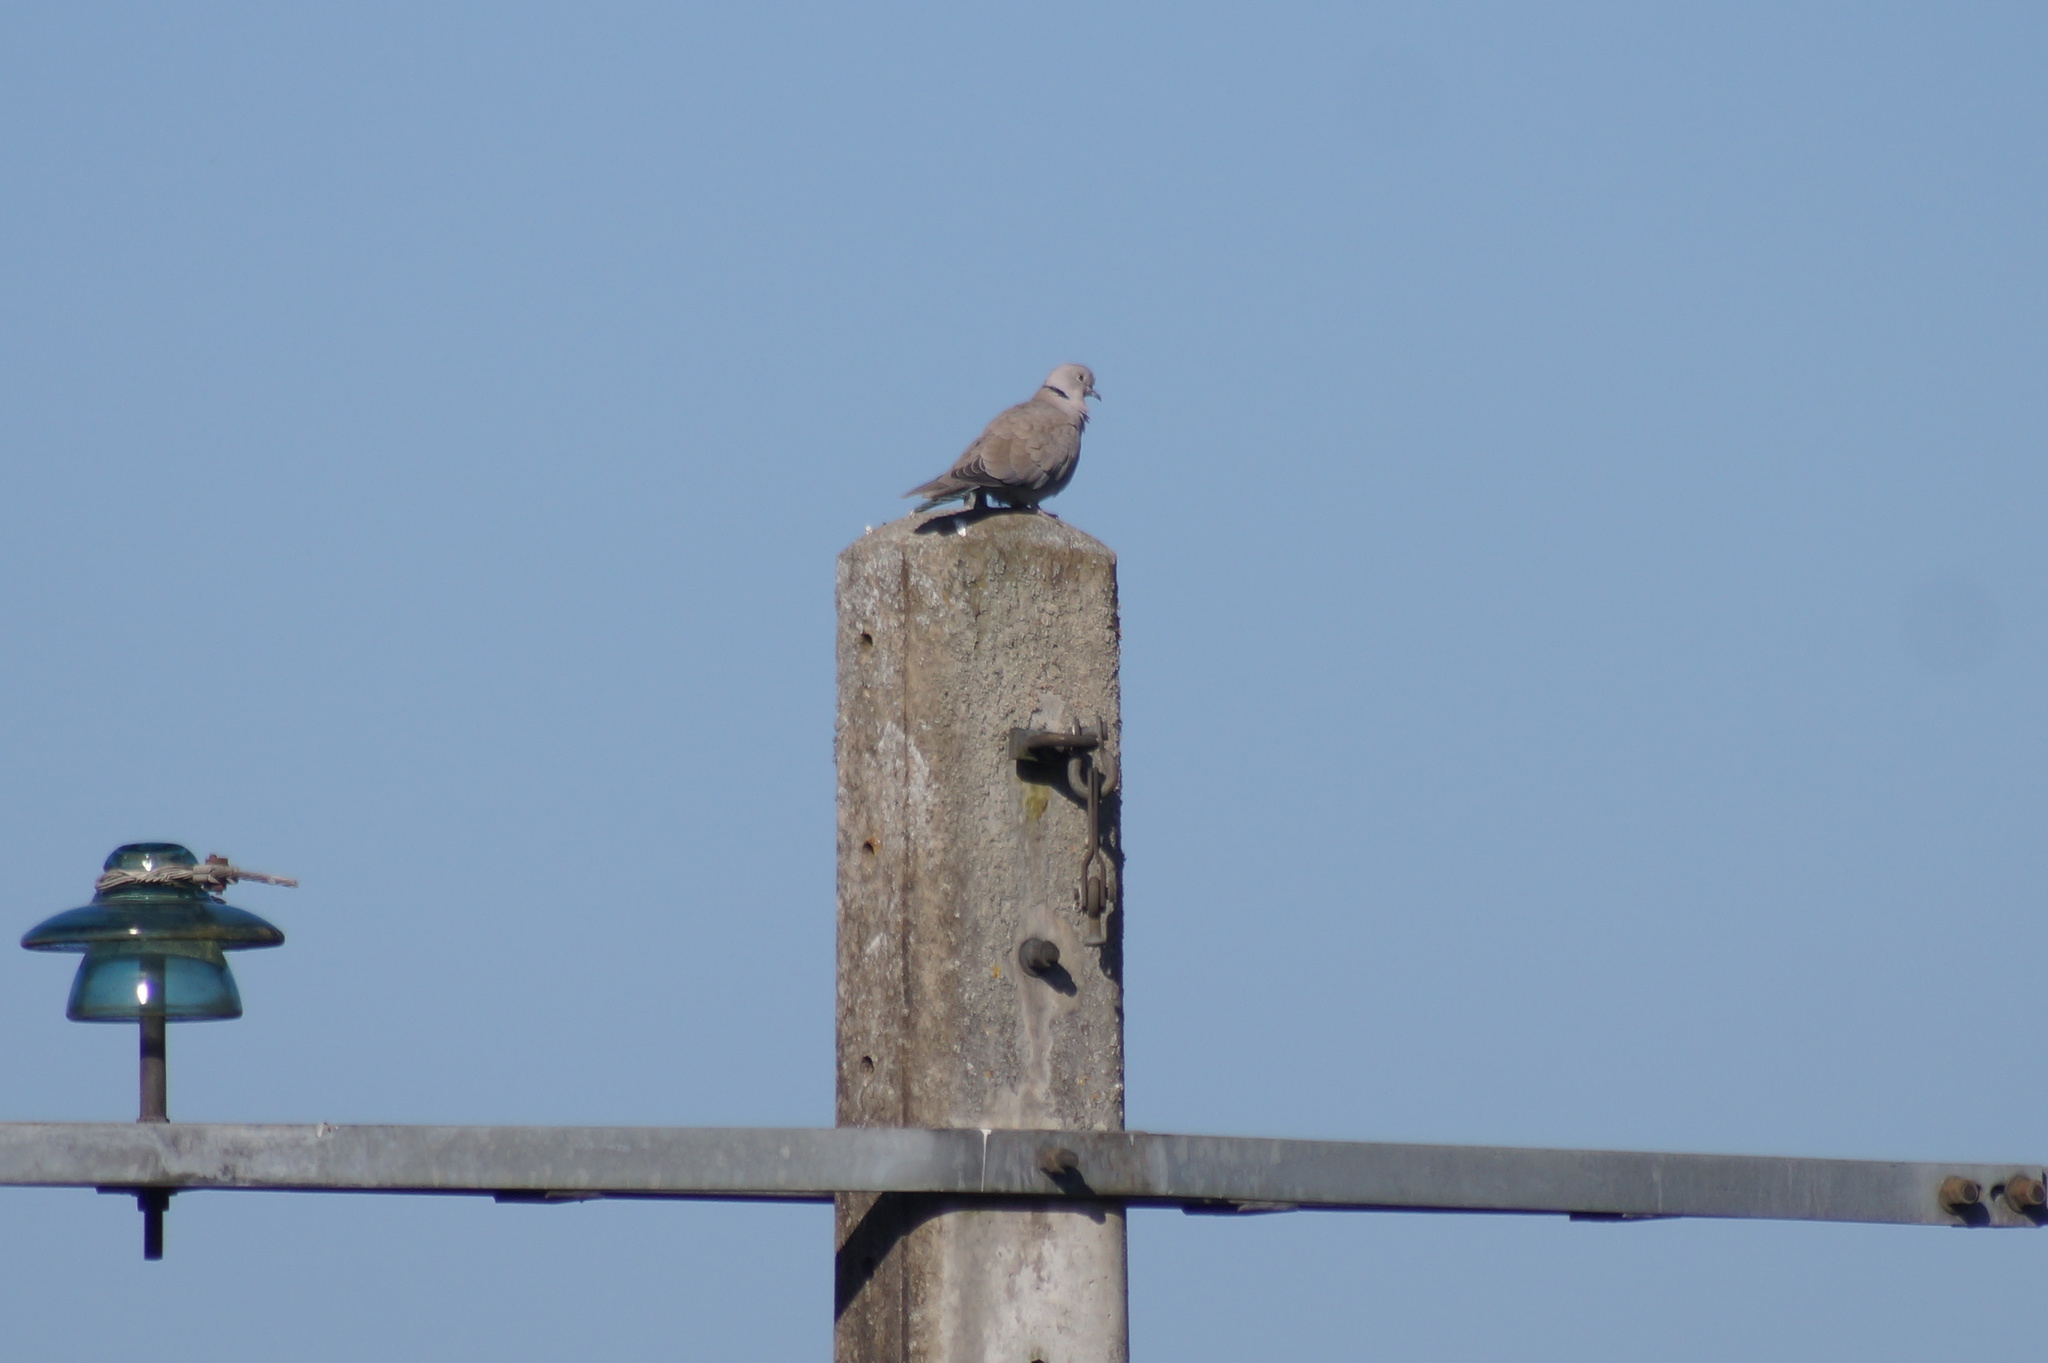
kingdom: Animalia
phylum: Chordata
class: Aves
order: Columbiformes
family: Columbidae
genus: Streptopelia
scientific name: Streptopelia decaocto
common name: Eurasian collared dove
